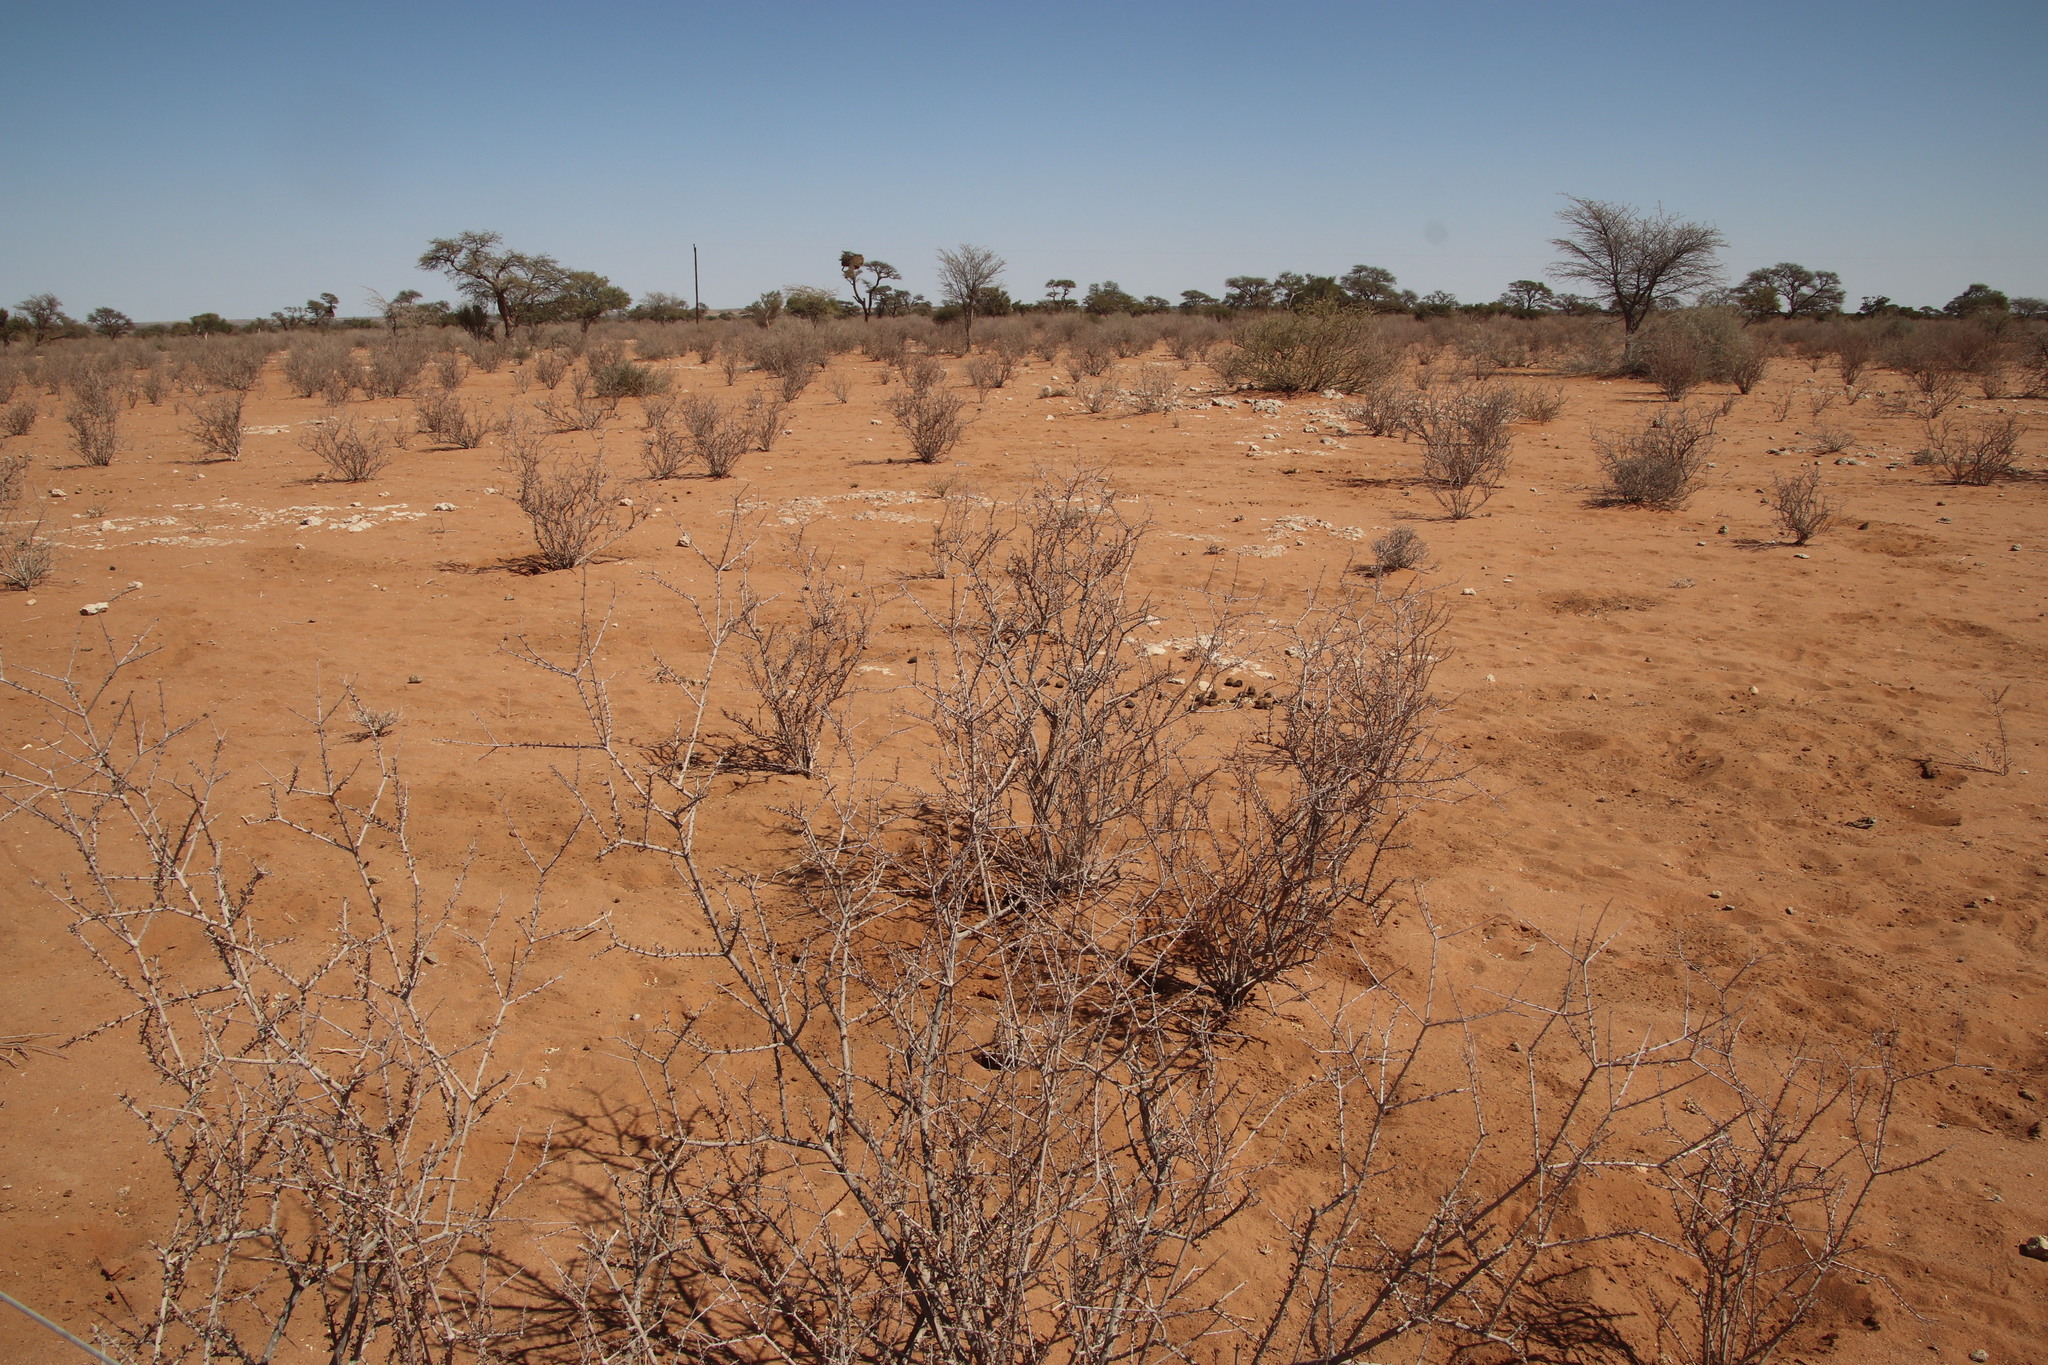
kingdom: Plantae
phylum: Tracheophyta
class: Magnoliopsida
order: Lamiales
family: Bignoniaceae
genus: Rhigozum
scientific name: Rhigozum trichotomum
